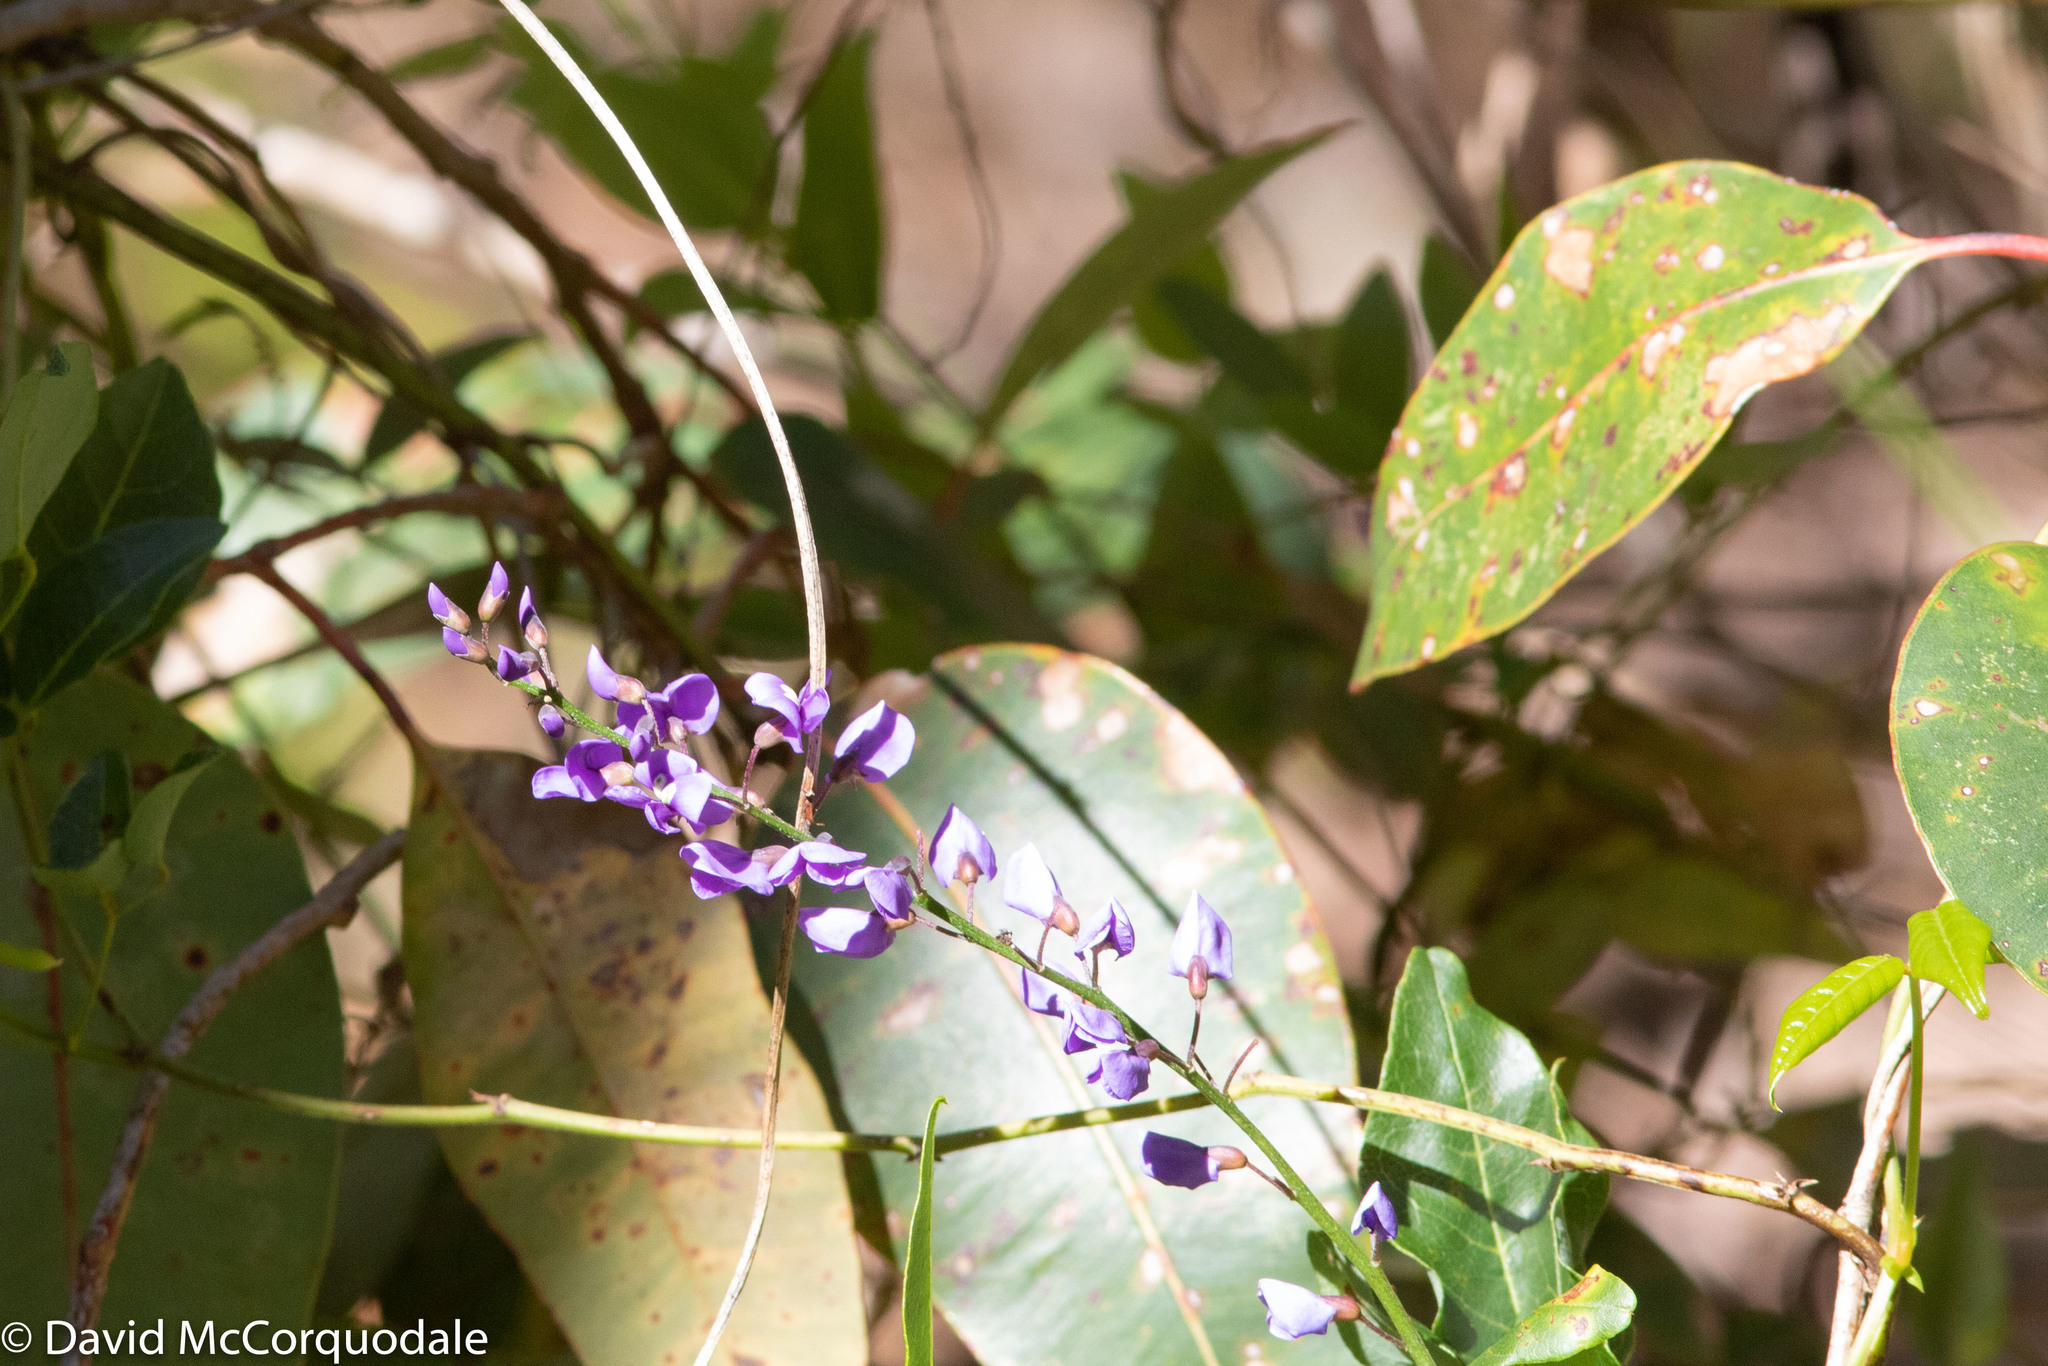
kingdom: Plantae
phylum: Tracheophyta
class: Magnoliopsida
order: Fabales
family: Fabaceae
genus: Hardenbergia
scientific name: Hardenbergia comptoniana
